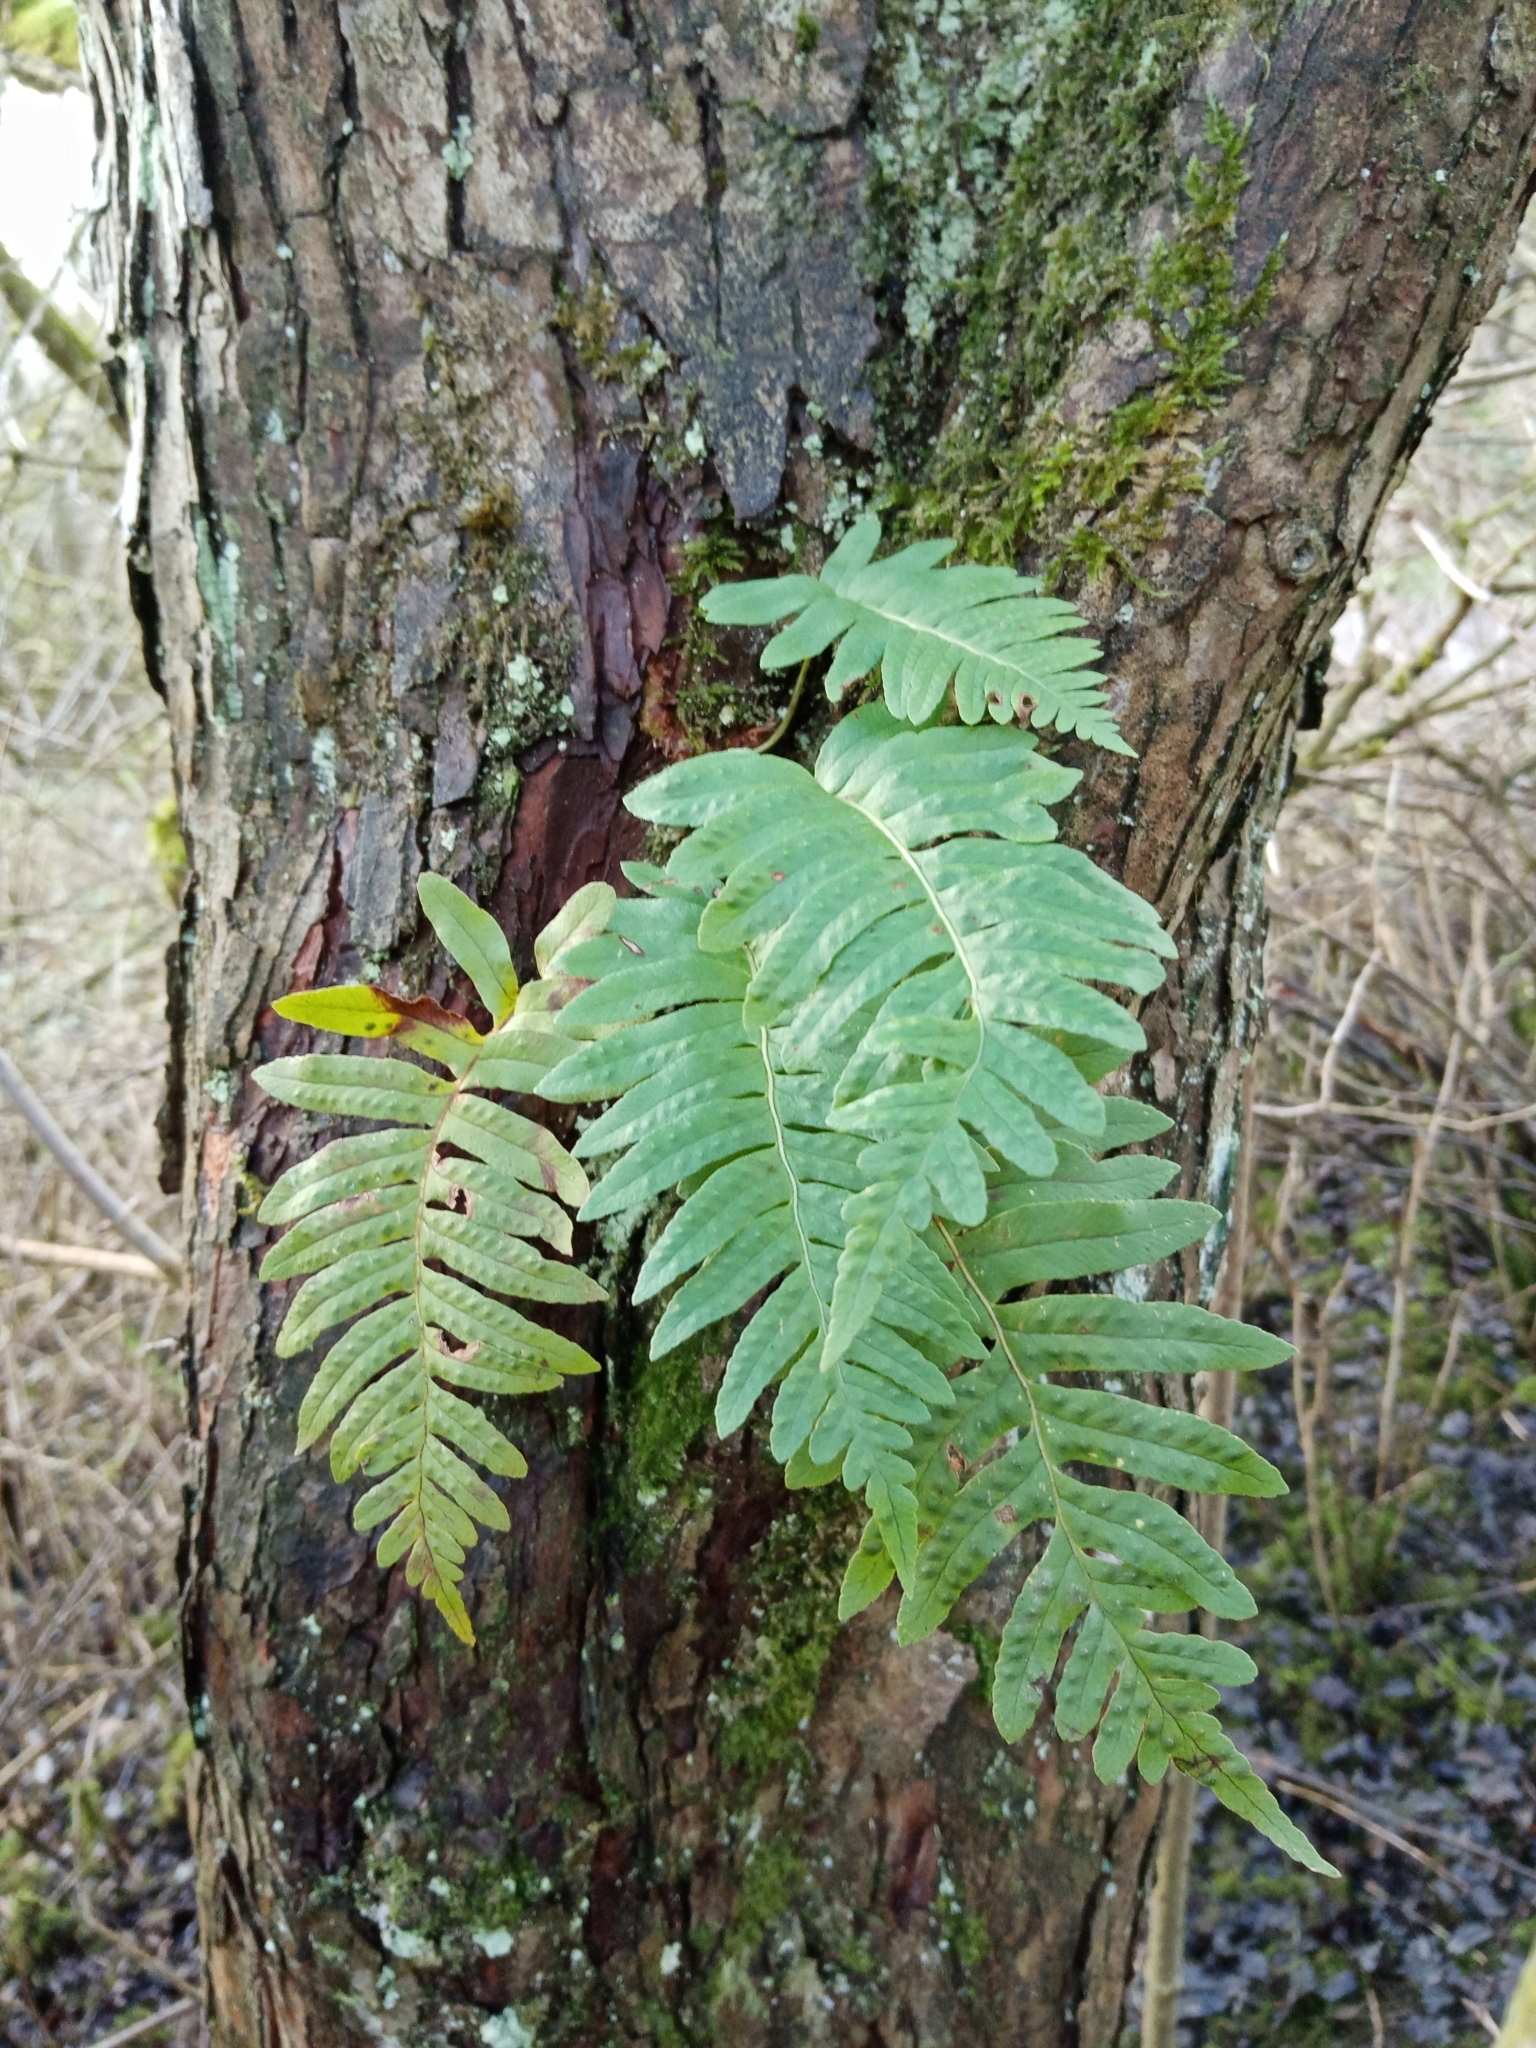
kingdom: Plantae
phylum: Tracheophyta
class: Polypodiopsida
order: Polypodiales
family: Polypodiaceae
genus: Polypodium
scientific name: Polypodium vulgare
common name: Common polypody
